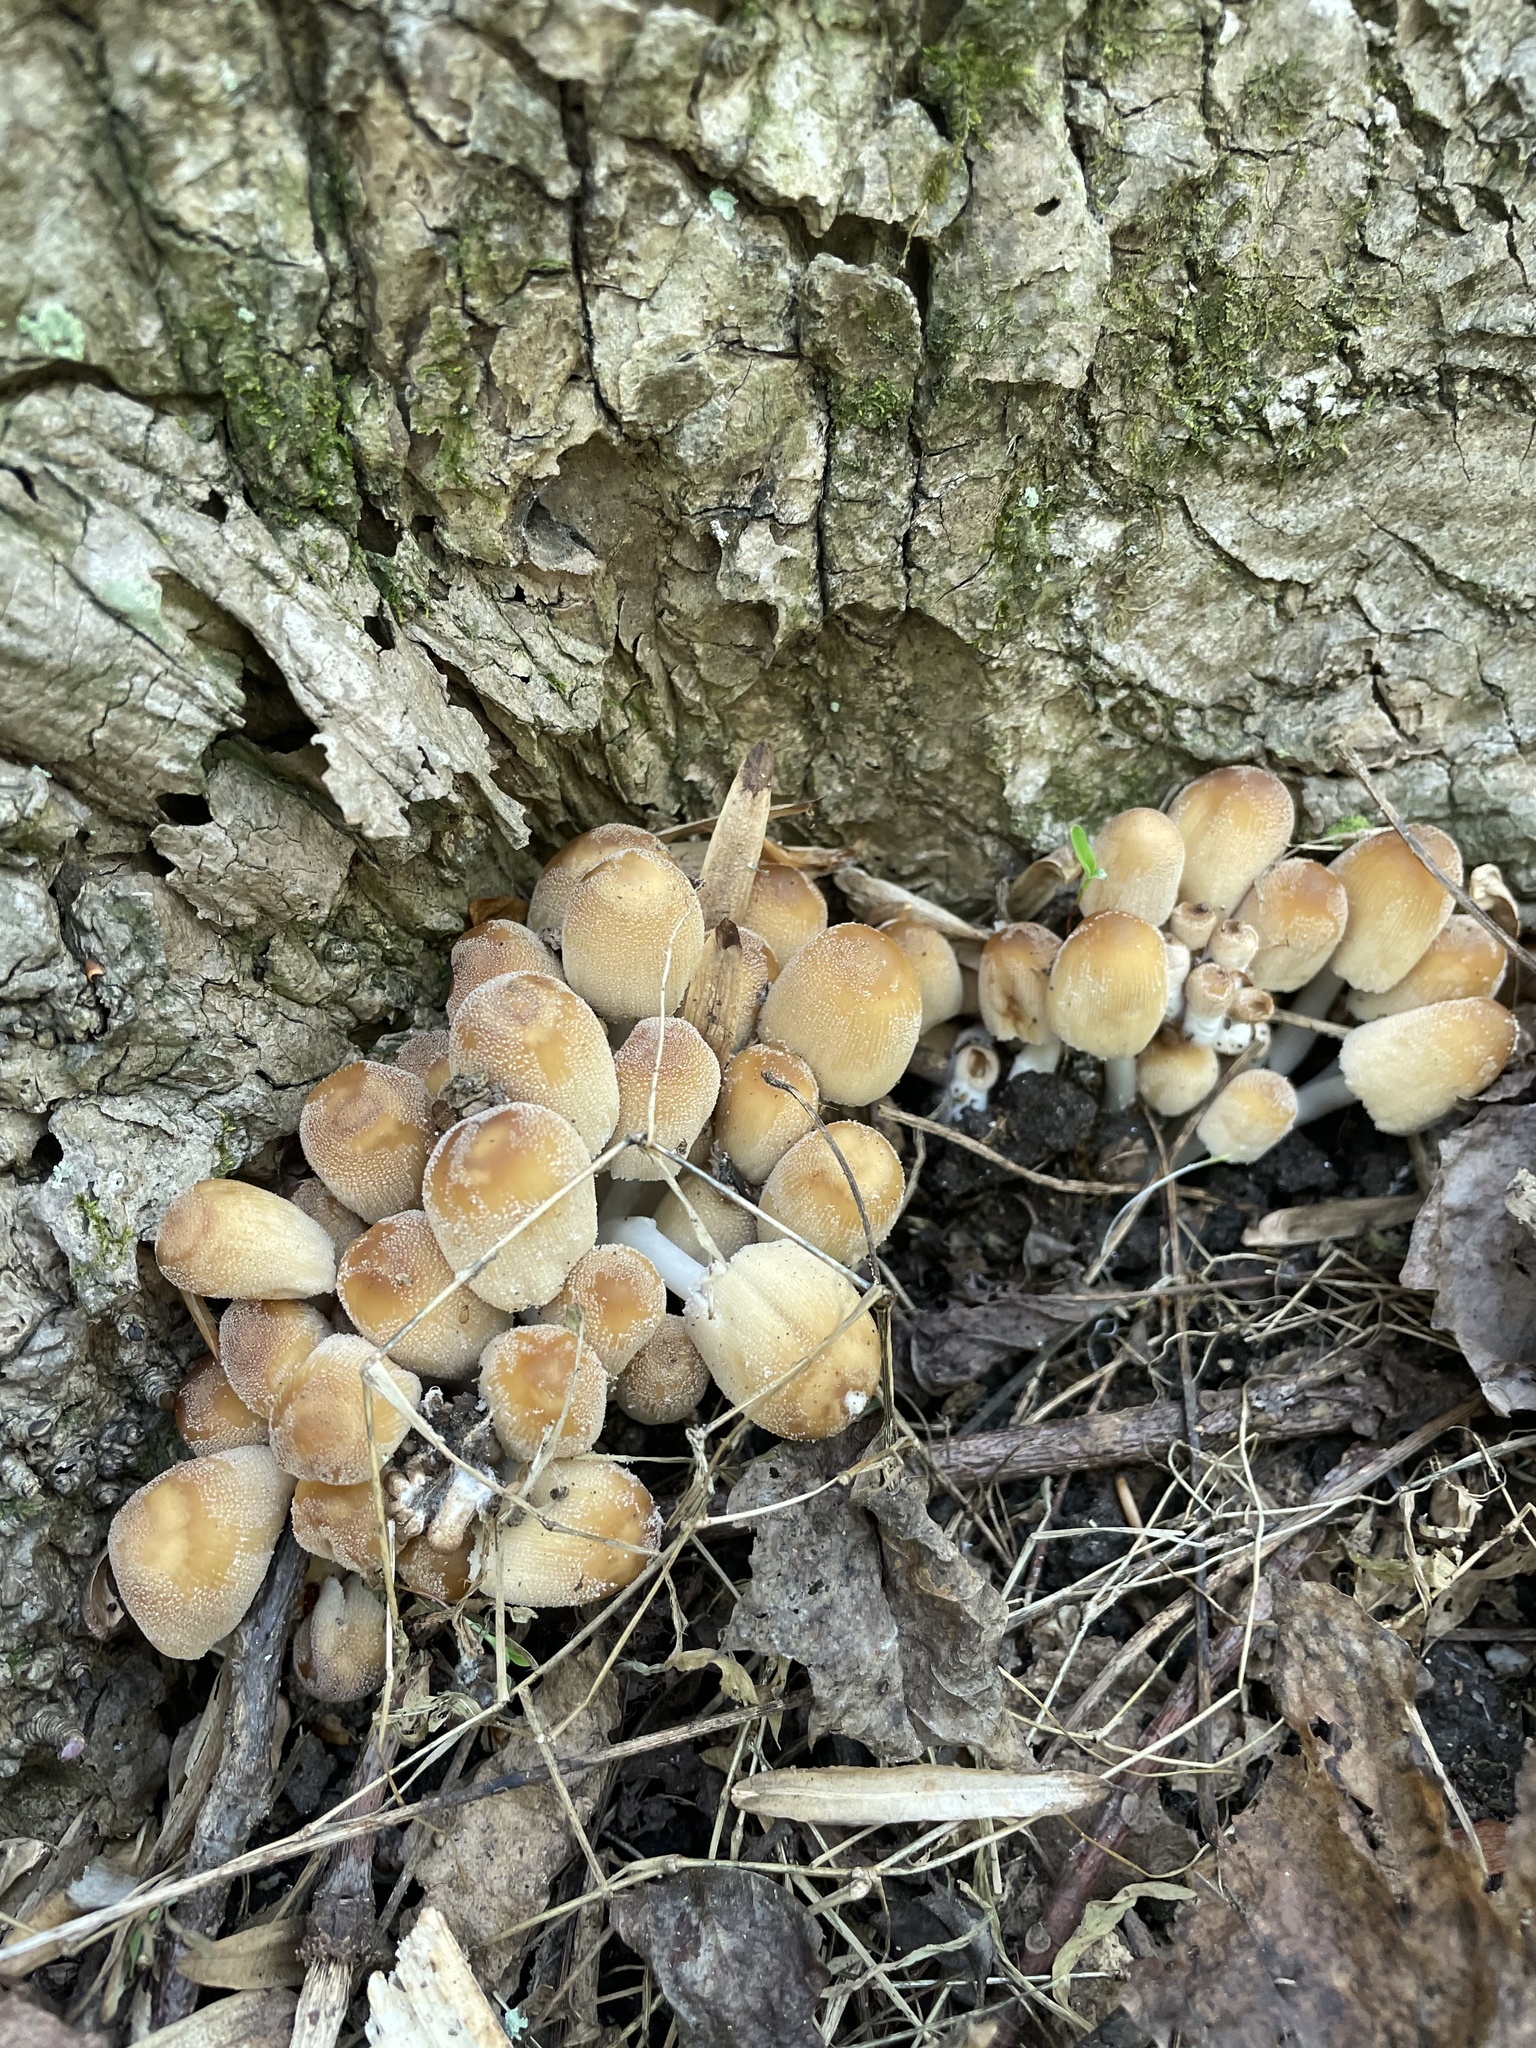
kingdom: Fungi
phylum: Basidiomycota
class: Agaricomycetes
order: Agaricales
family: Psathyrellaceae
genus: Coprinellus
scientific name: Coprinellus micaceus
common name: Glistening ink-cap
